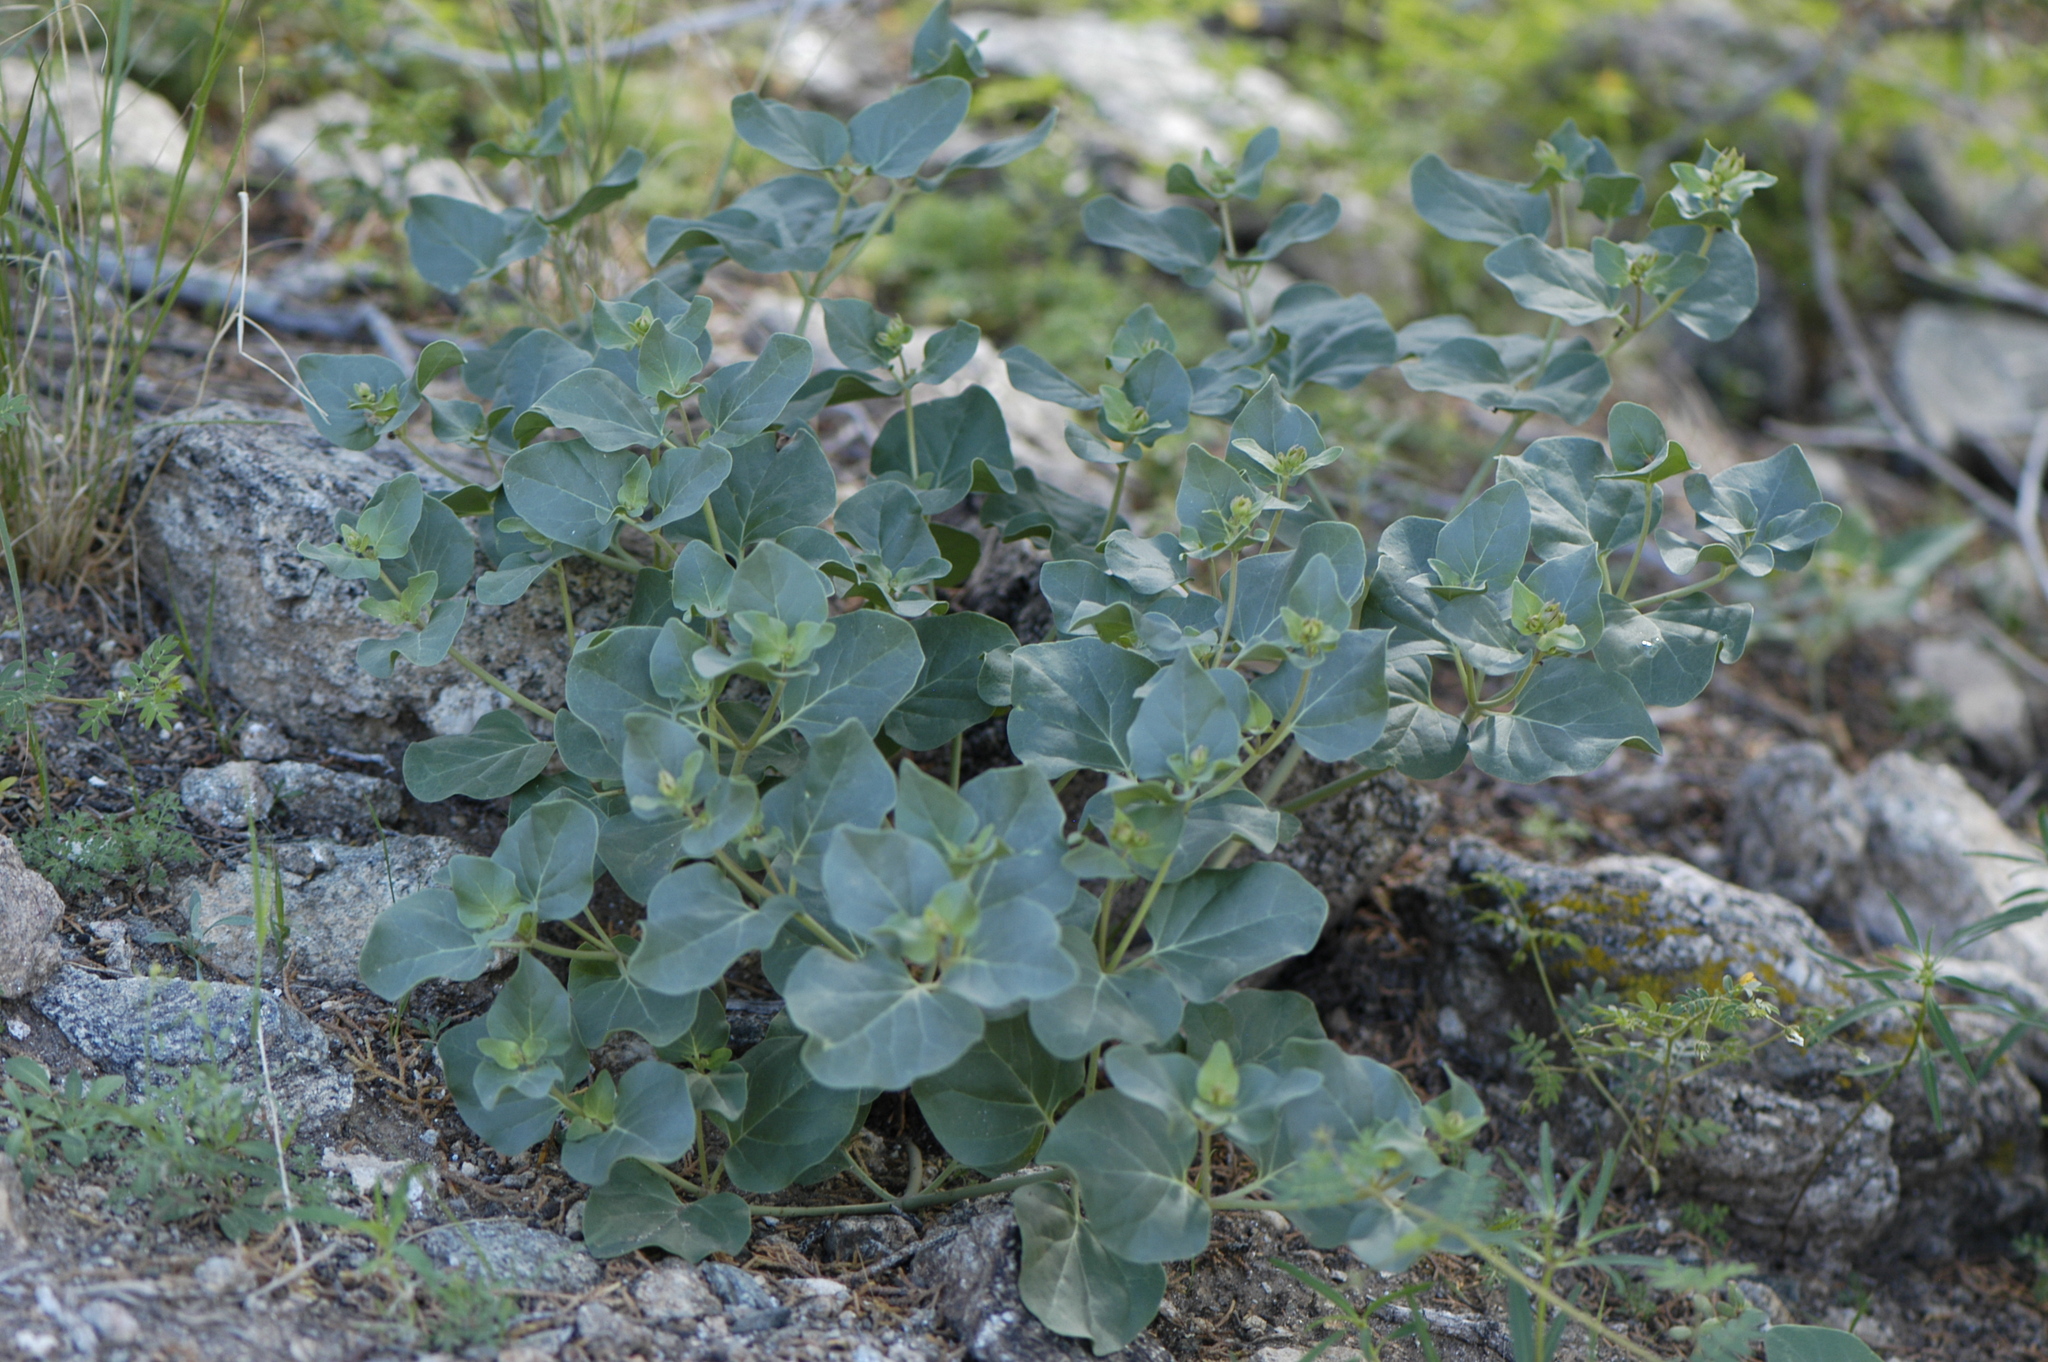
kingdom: Plantae
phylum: Tracheophyta
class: Magnoliopsida
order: Caryophyllales
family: Nyctaginaceae
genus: Mirabilis
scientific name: Mirabilis multiflora
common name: Froebel's four-o'clock
